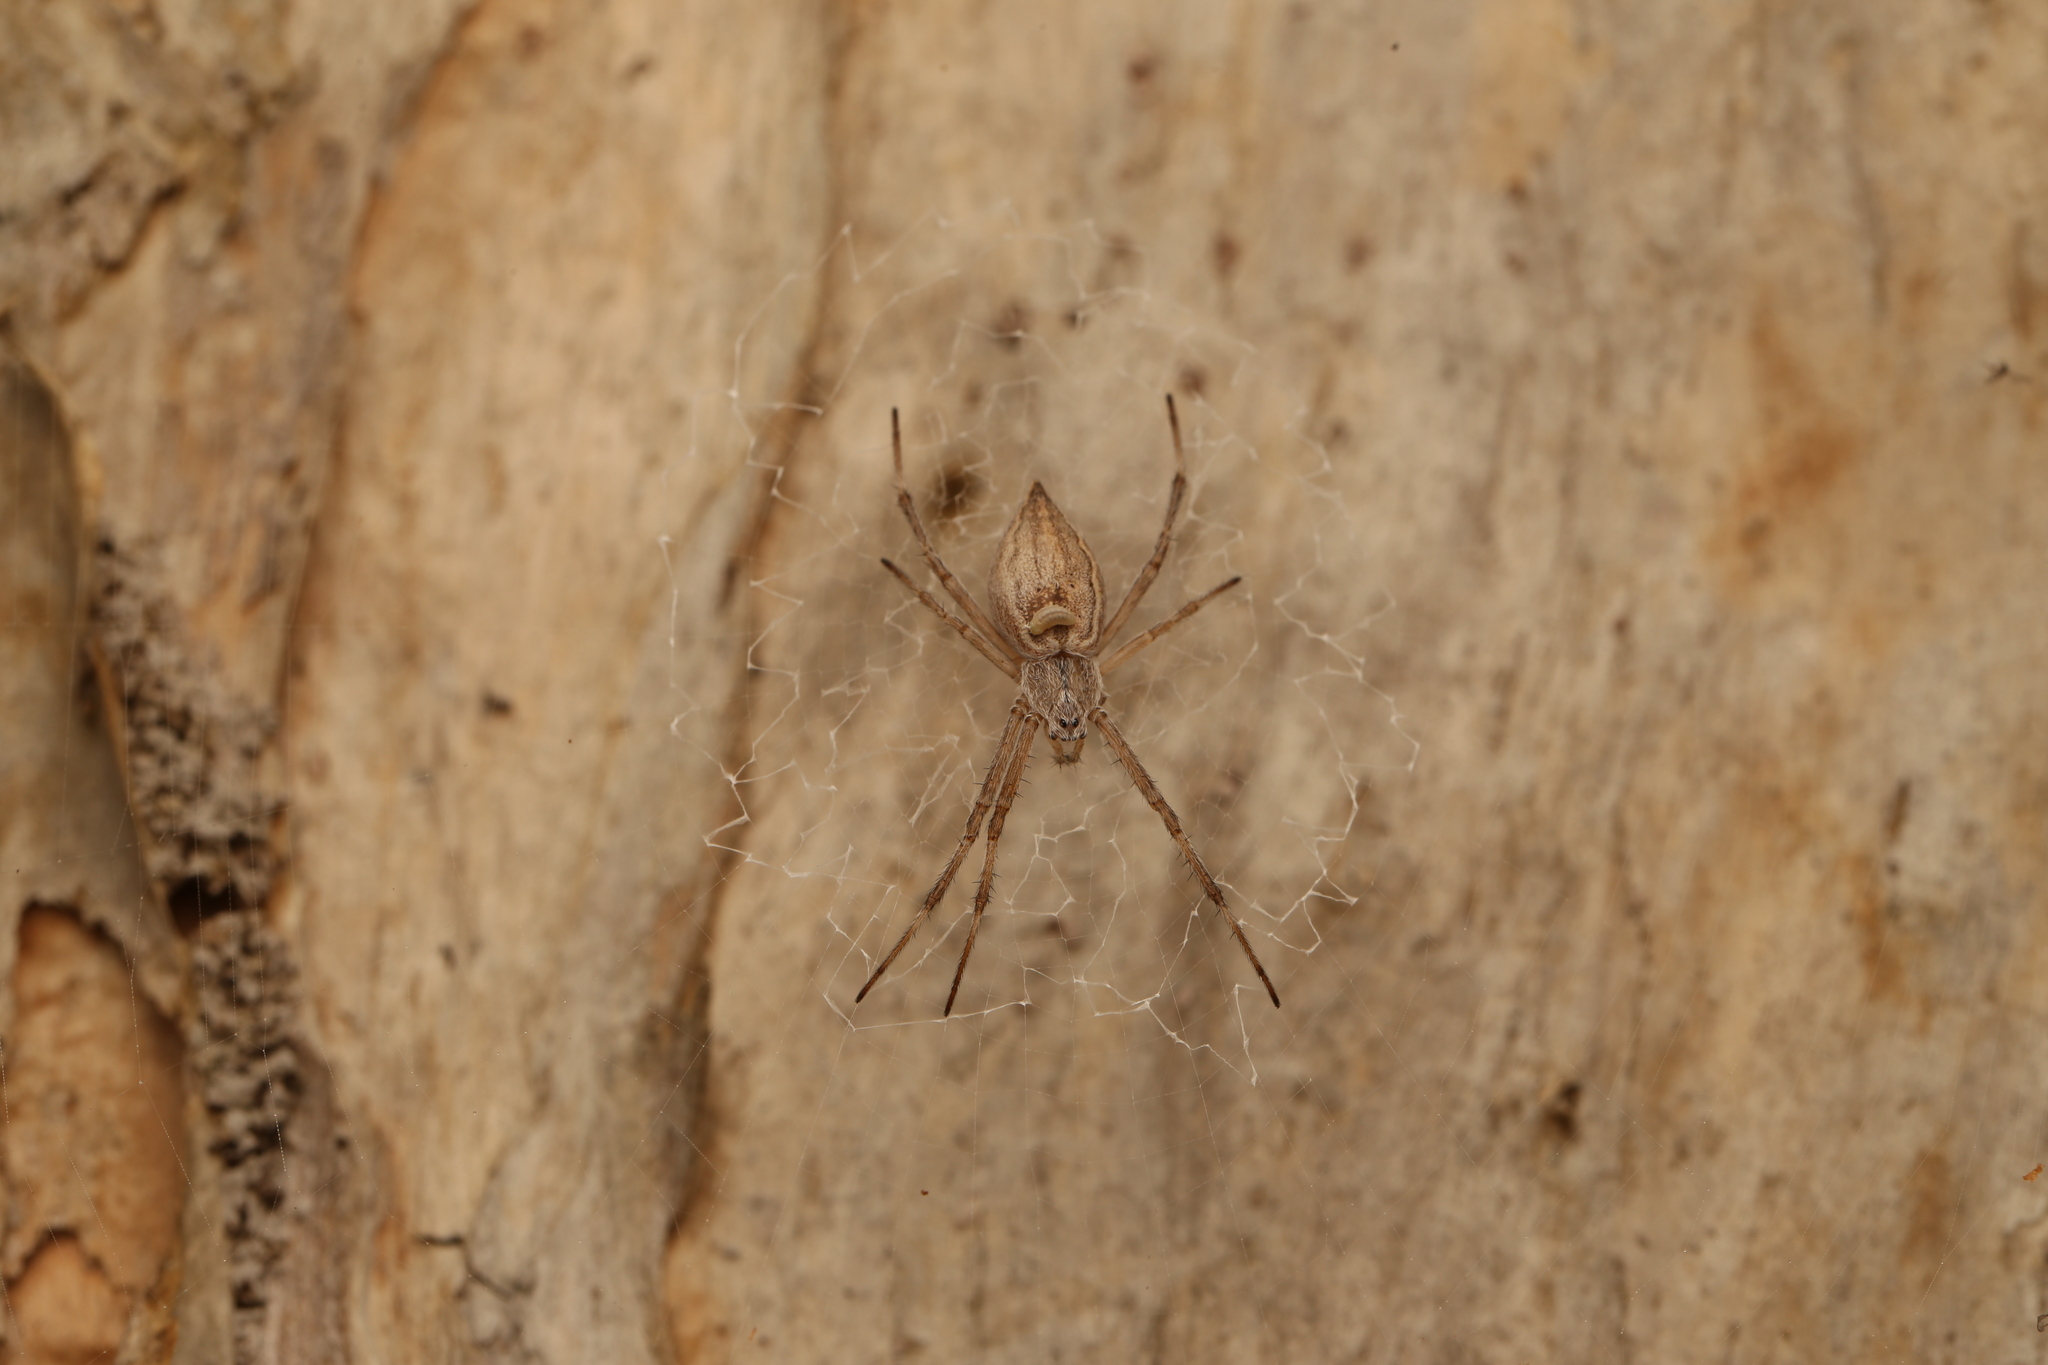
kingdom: Animalia
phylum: Arthropoda
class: Arachnida
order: Araneae
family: Araneidae
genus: Argiope
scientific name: Argiope ocyaloides
